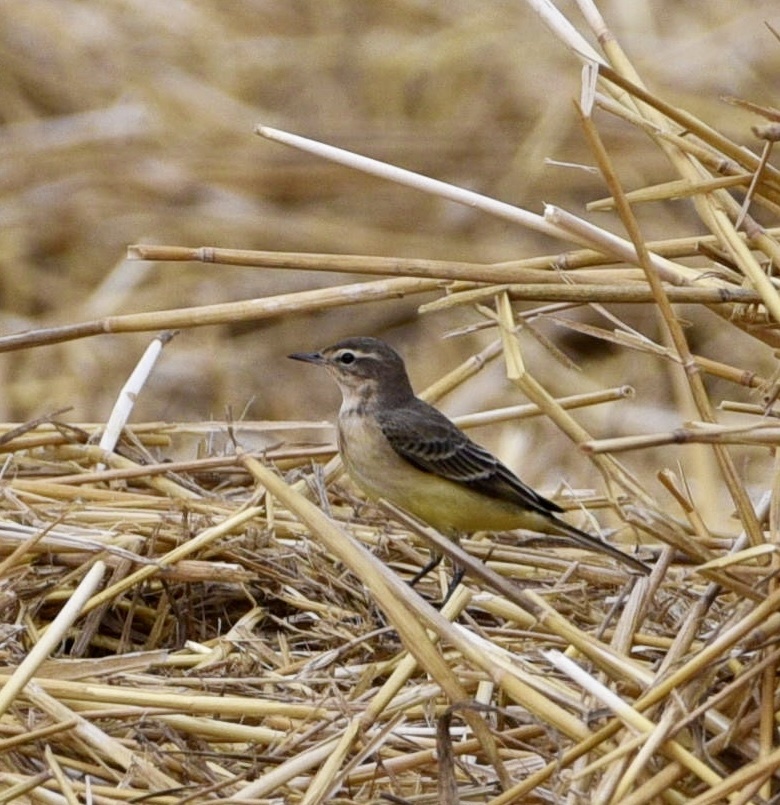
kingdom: Animalia
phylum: Chordata
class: Aves
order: Passeriformes
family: Motacillidae
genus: Motacilla
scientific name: Motacilla flava
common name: Western yellow wagtail
